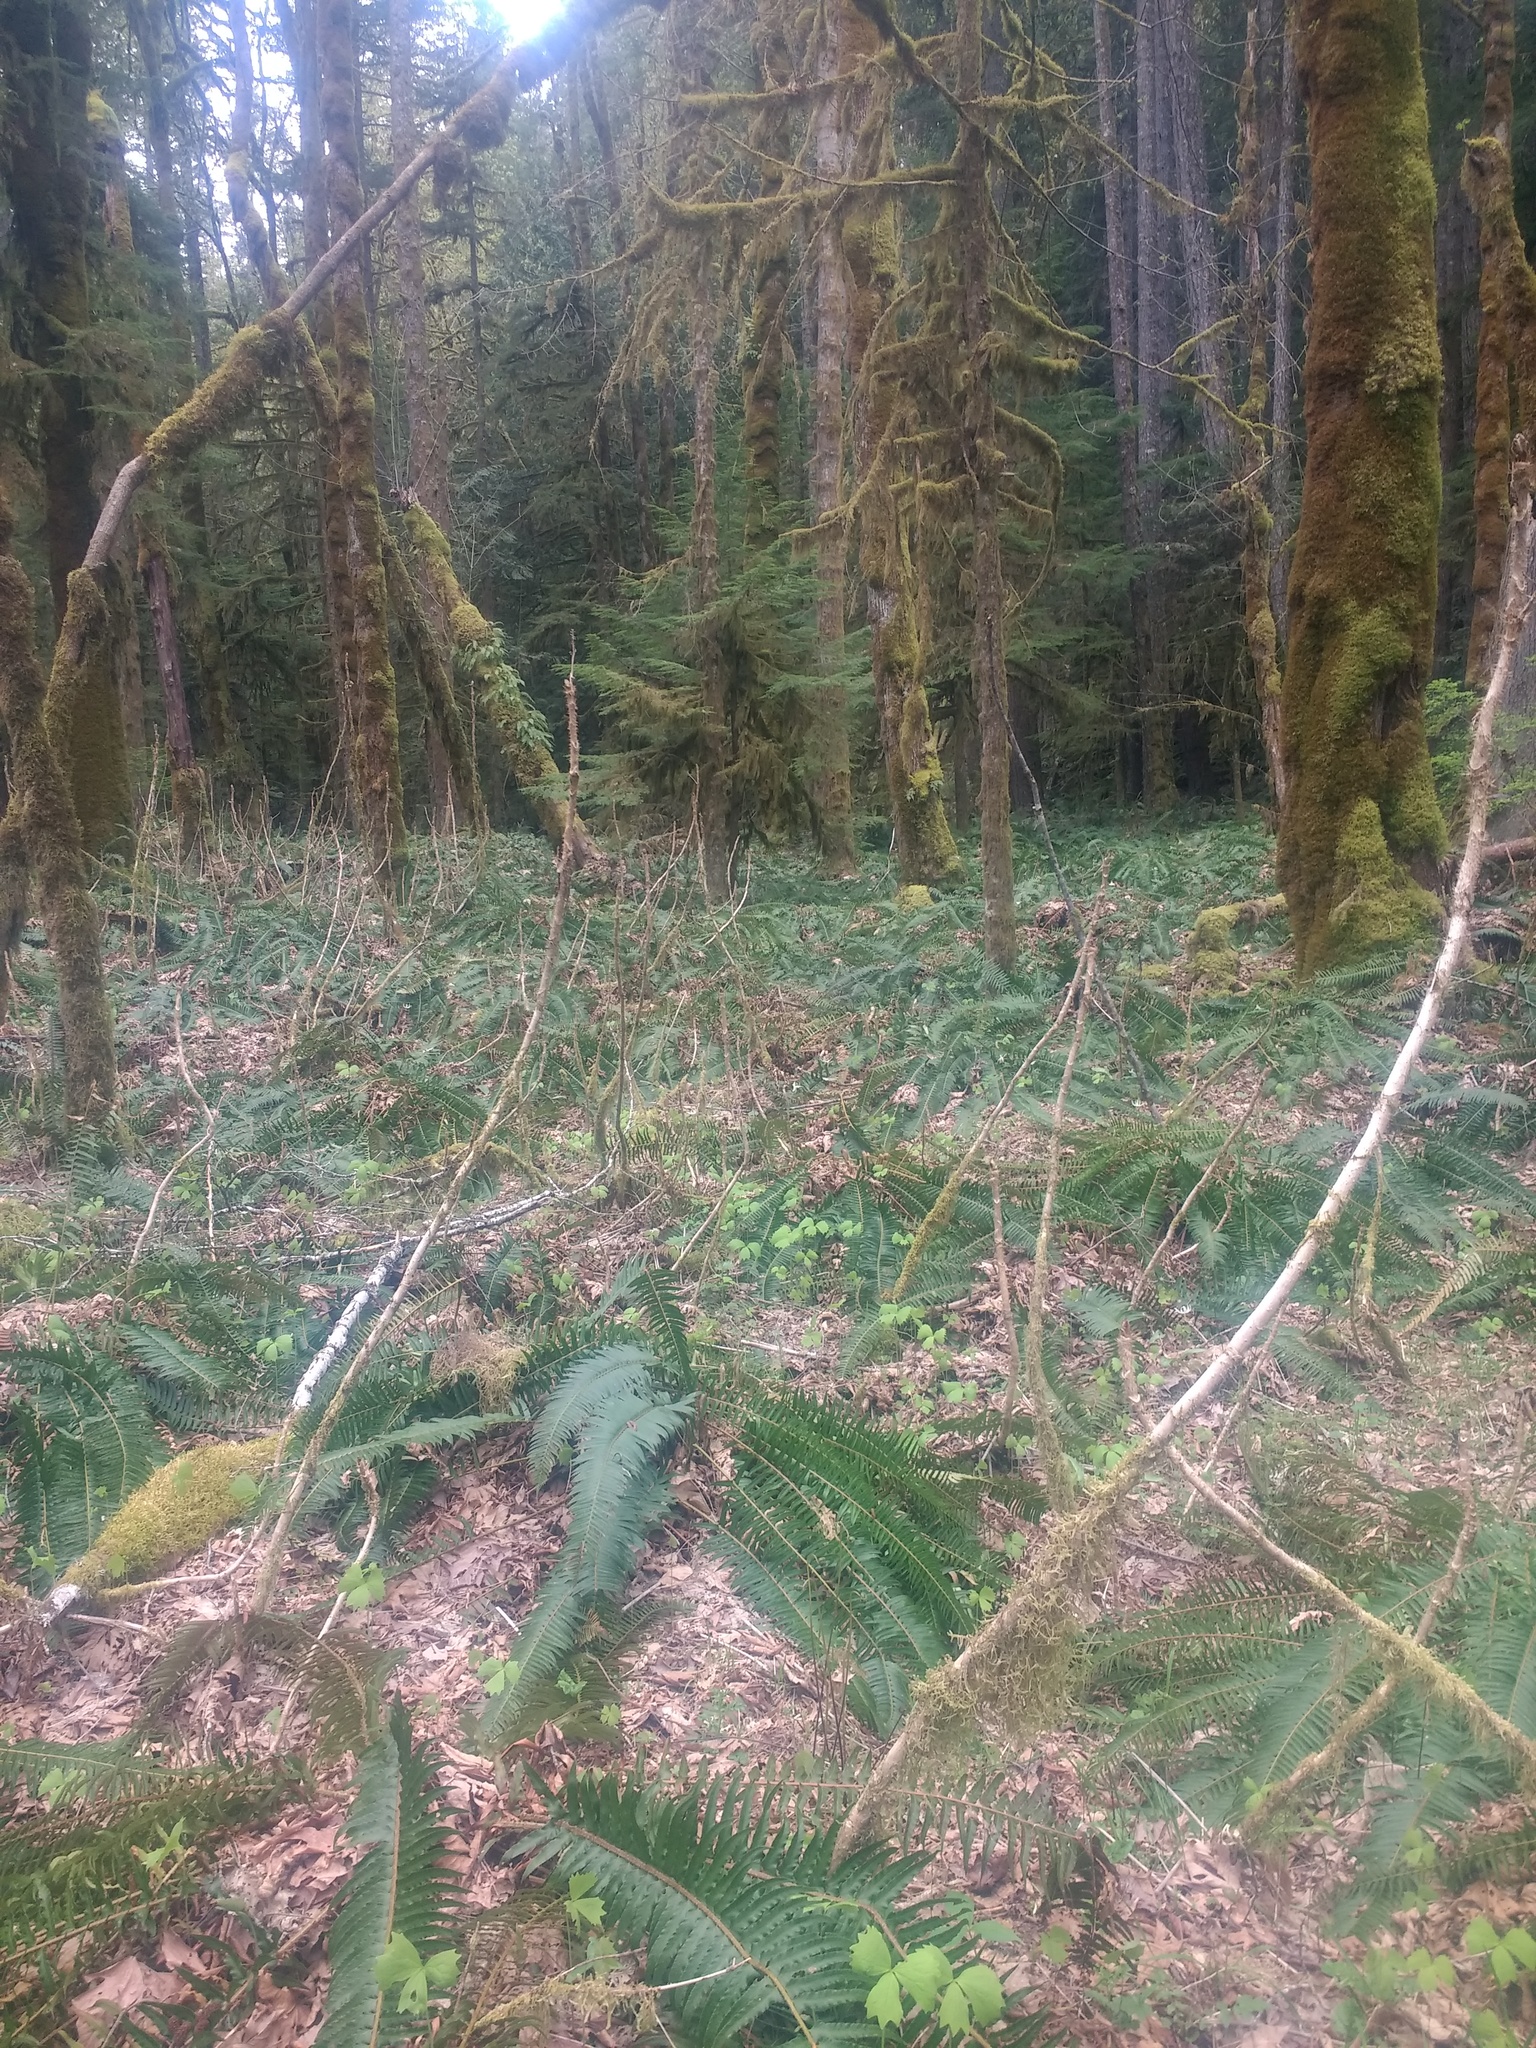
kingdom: Plantae
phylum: Tracheophyta
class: Polypodiopsida
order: Polypodiales
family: Dryopteridaceae
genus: Polystichum
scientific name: Polystichum munitum
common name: Western sword-fern
